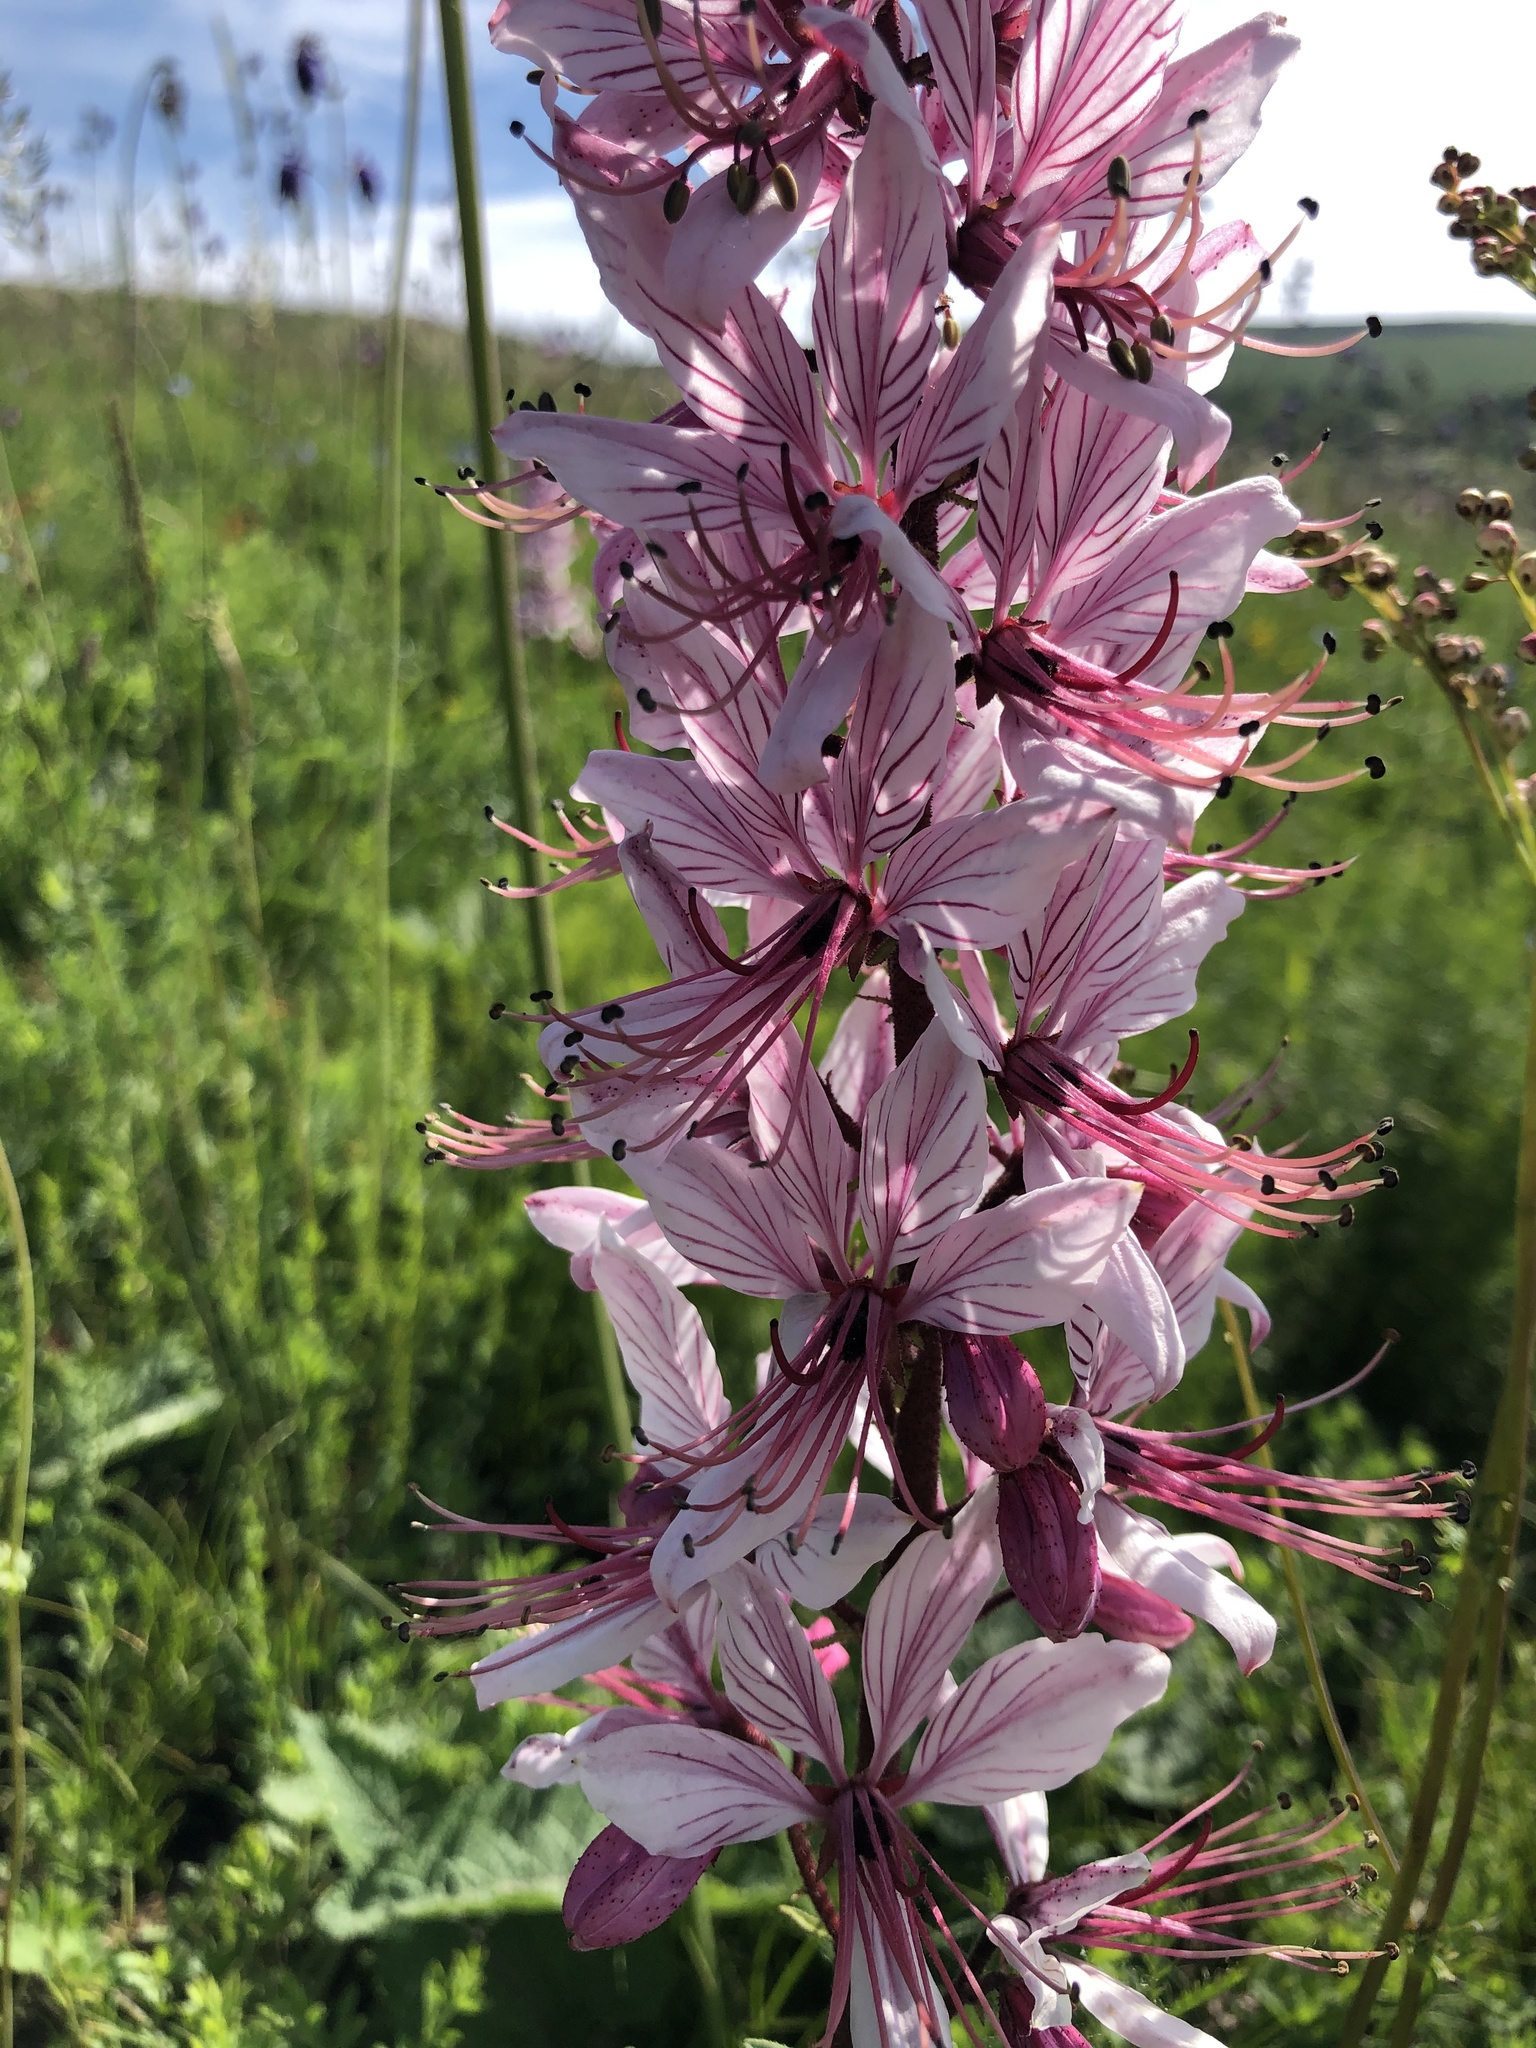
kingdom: Plantae
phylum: Tracheophyta
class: Magnoliopsida
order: Sapindales
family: Rutaceae
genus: Dictamnus
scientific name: Dictamnus albus
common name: Gasplant
